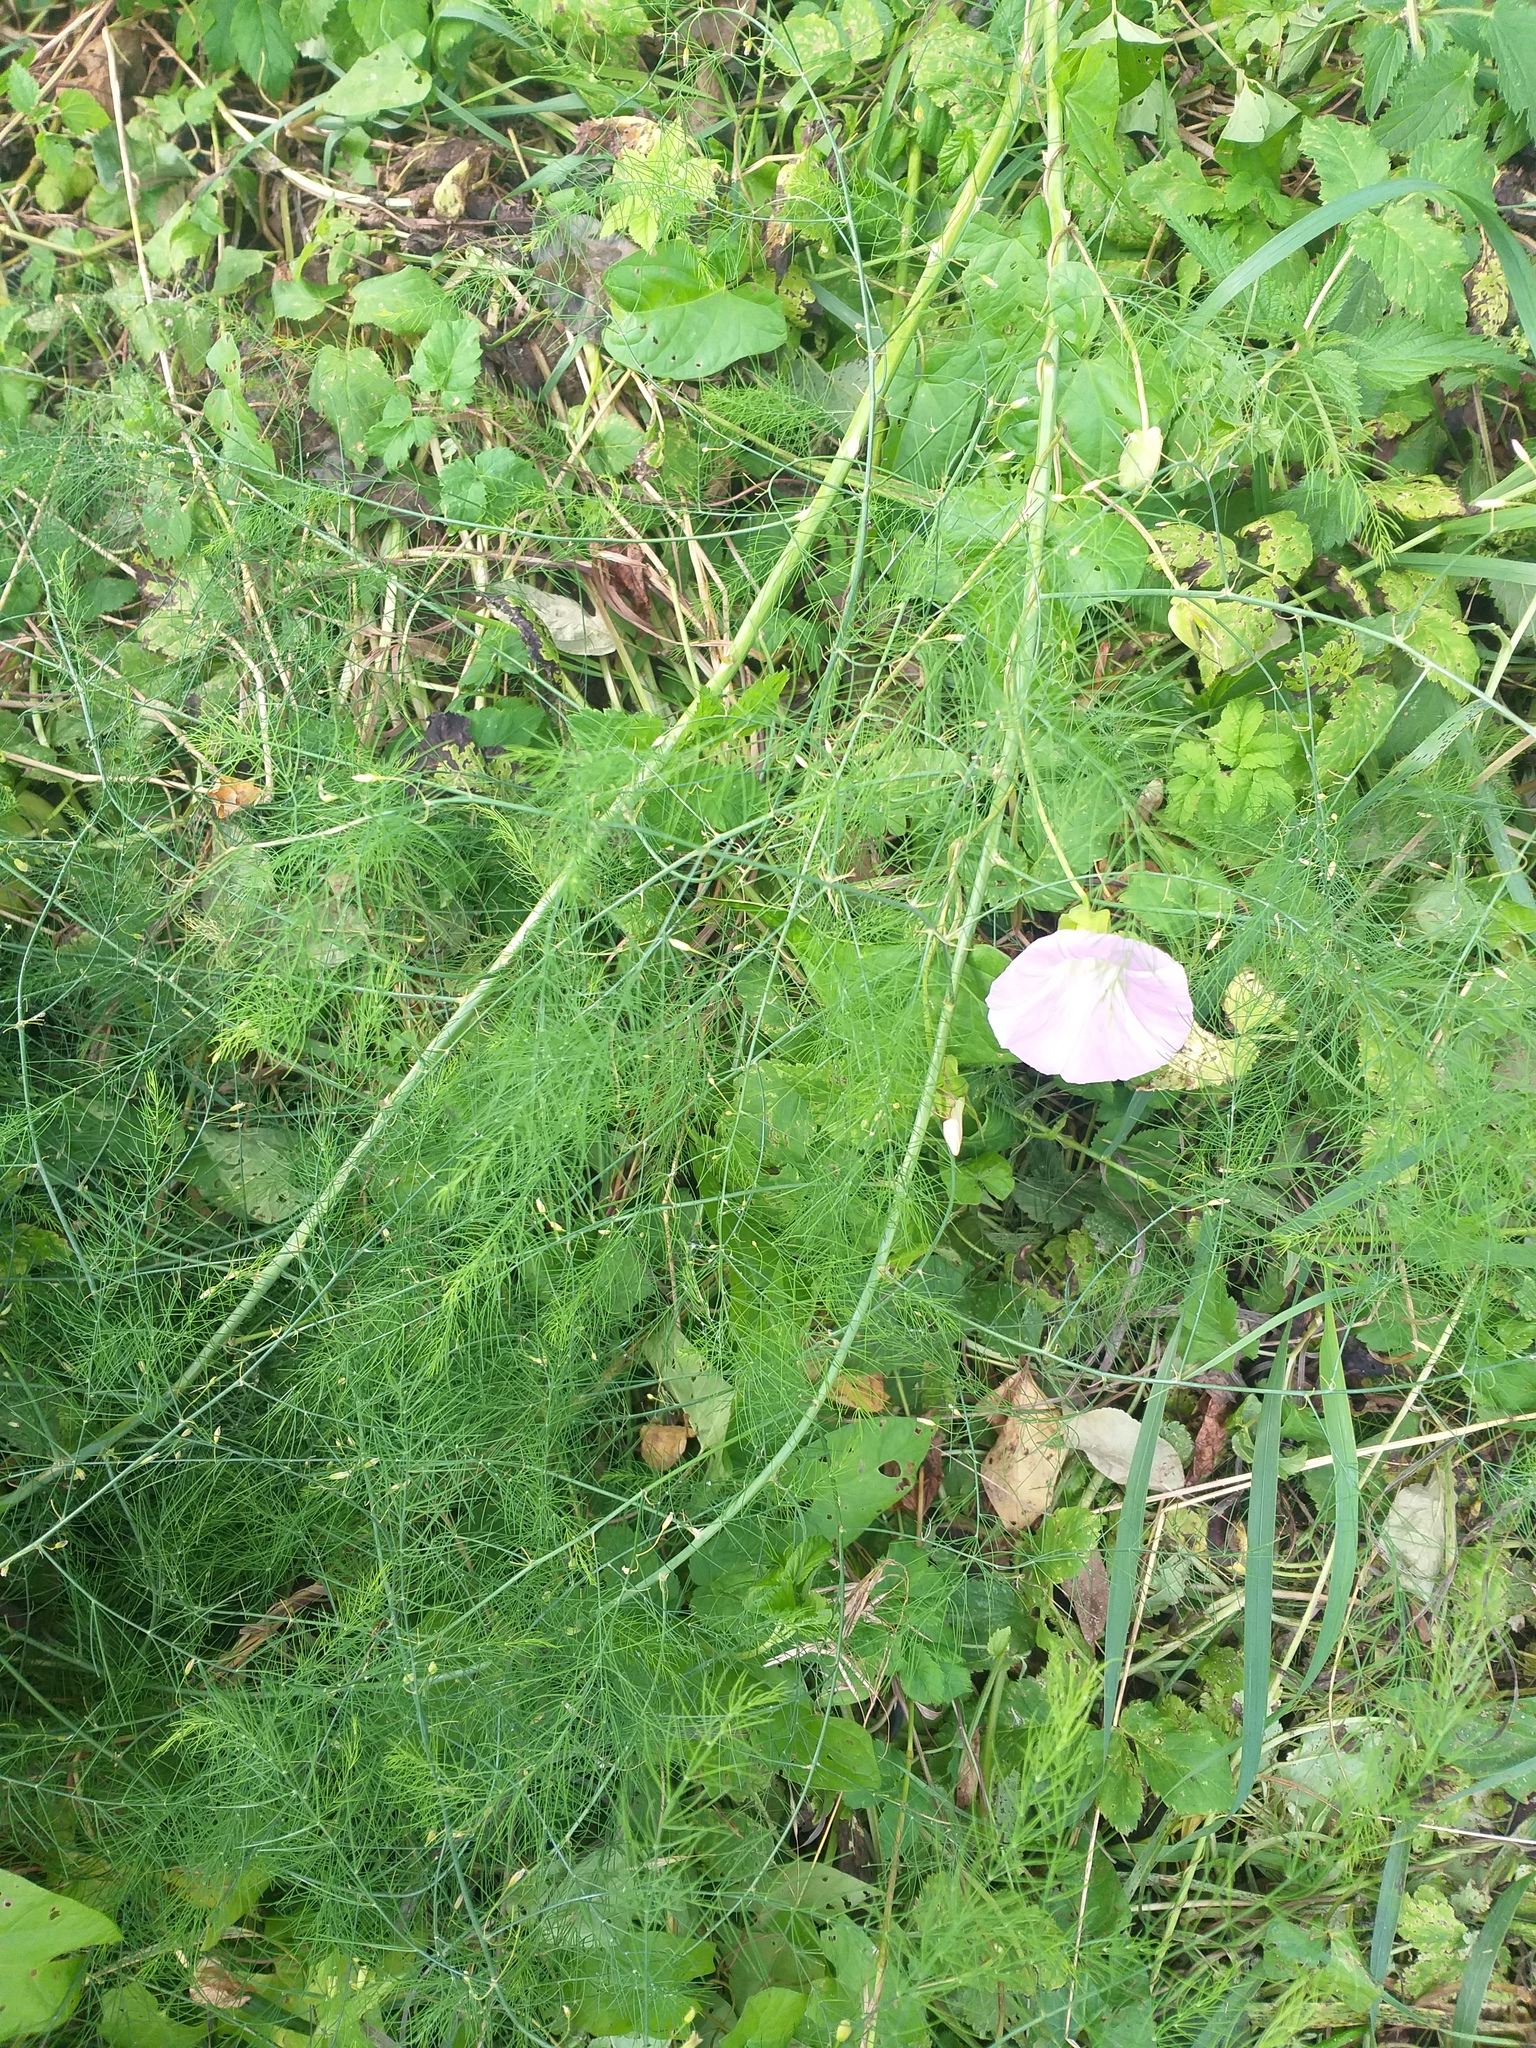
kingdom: Plantae
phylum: Tracheophyta
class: Liliopsida
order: Asparagales
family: Asparagaceae
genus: Asparagus
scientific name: Asparagus officinalis
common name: Garden asparagus
